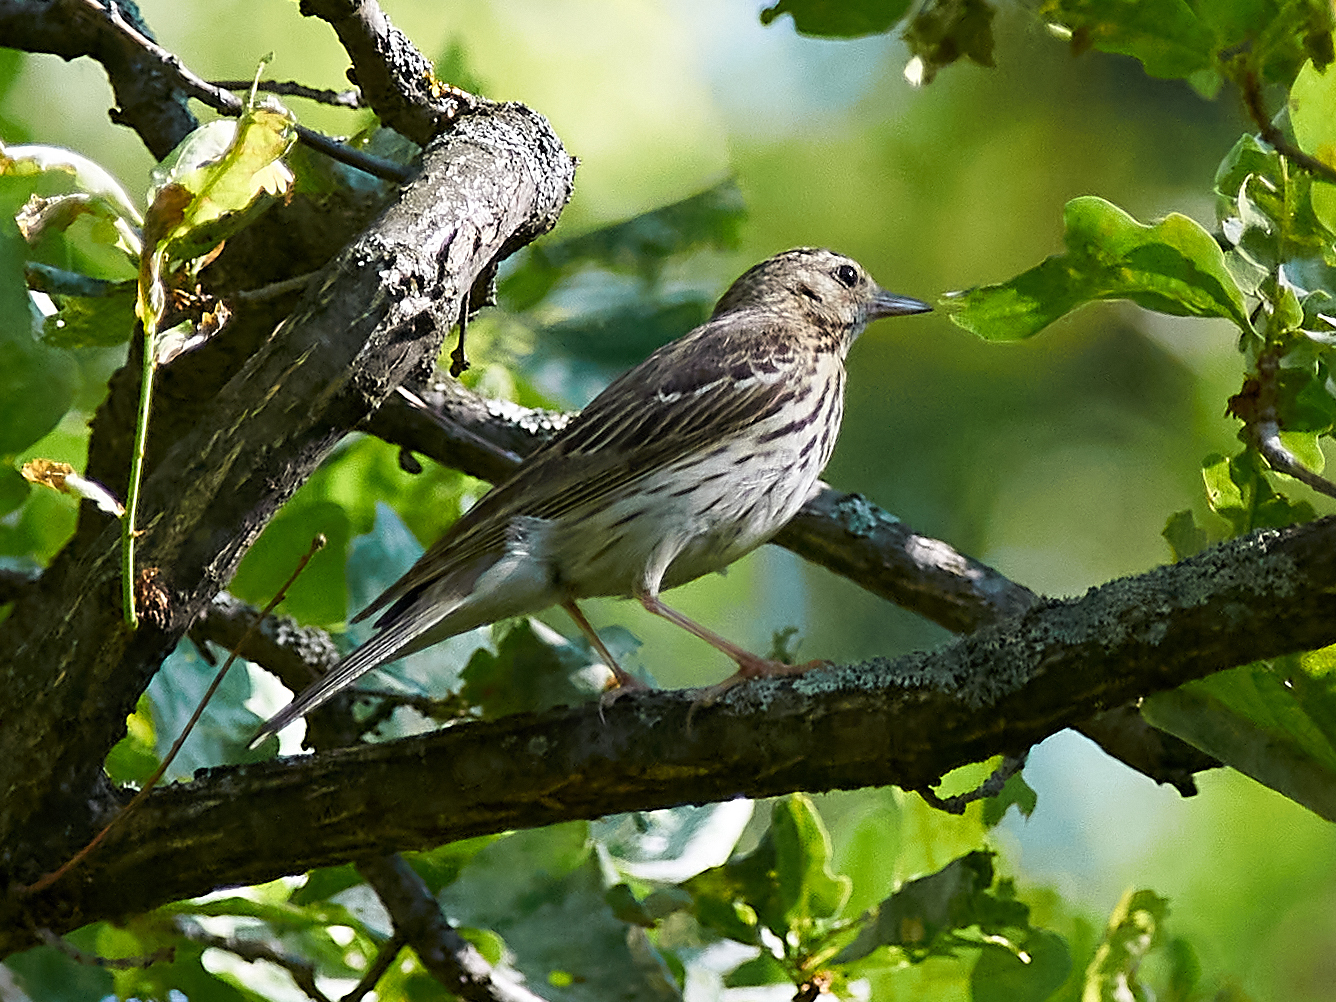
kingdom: Animalia
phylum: Chordata
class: Aves
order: Passeriformes
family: Motacillidae
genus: Anthus
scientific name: Anthus trivialis
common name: Tree pipit
